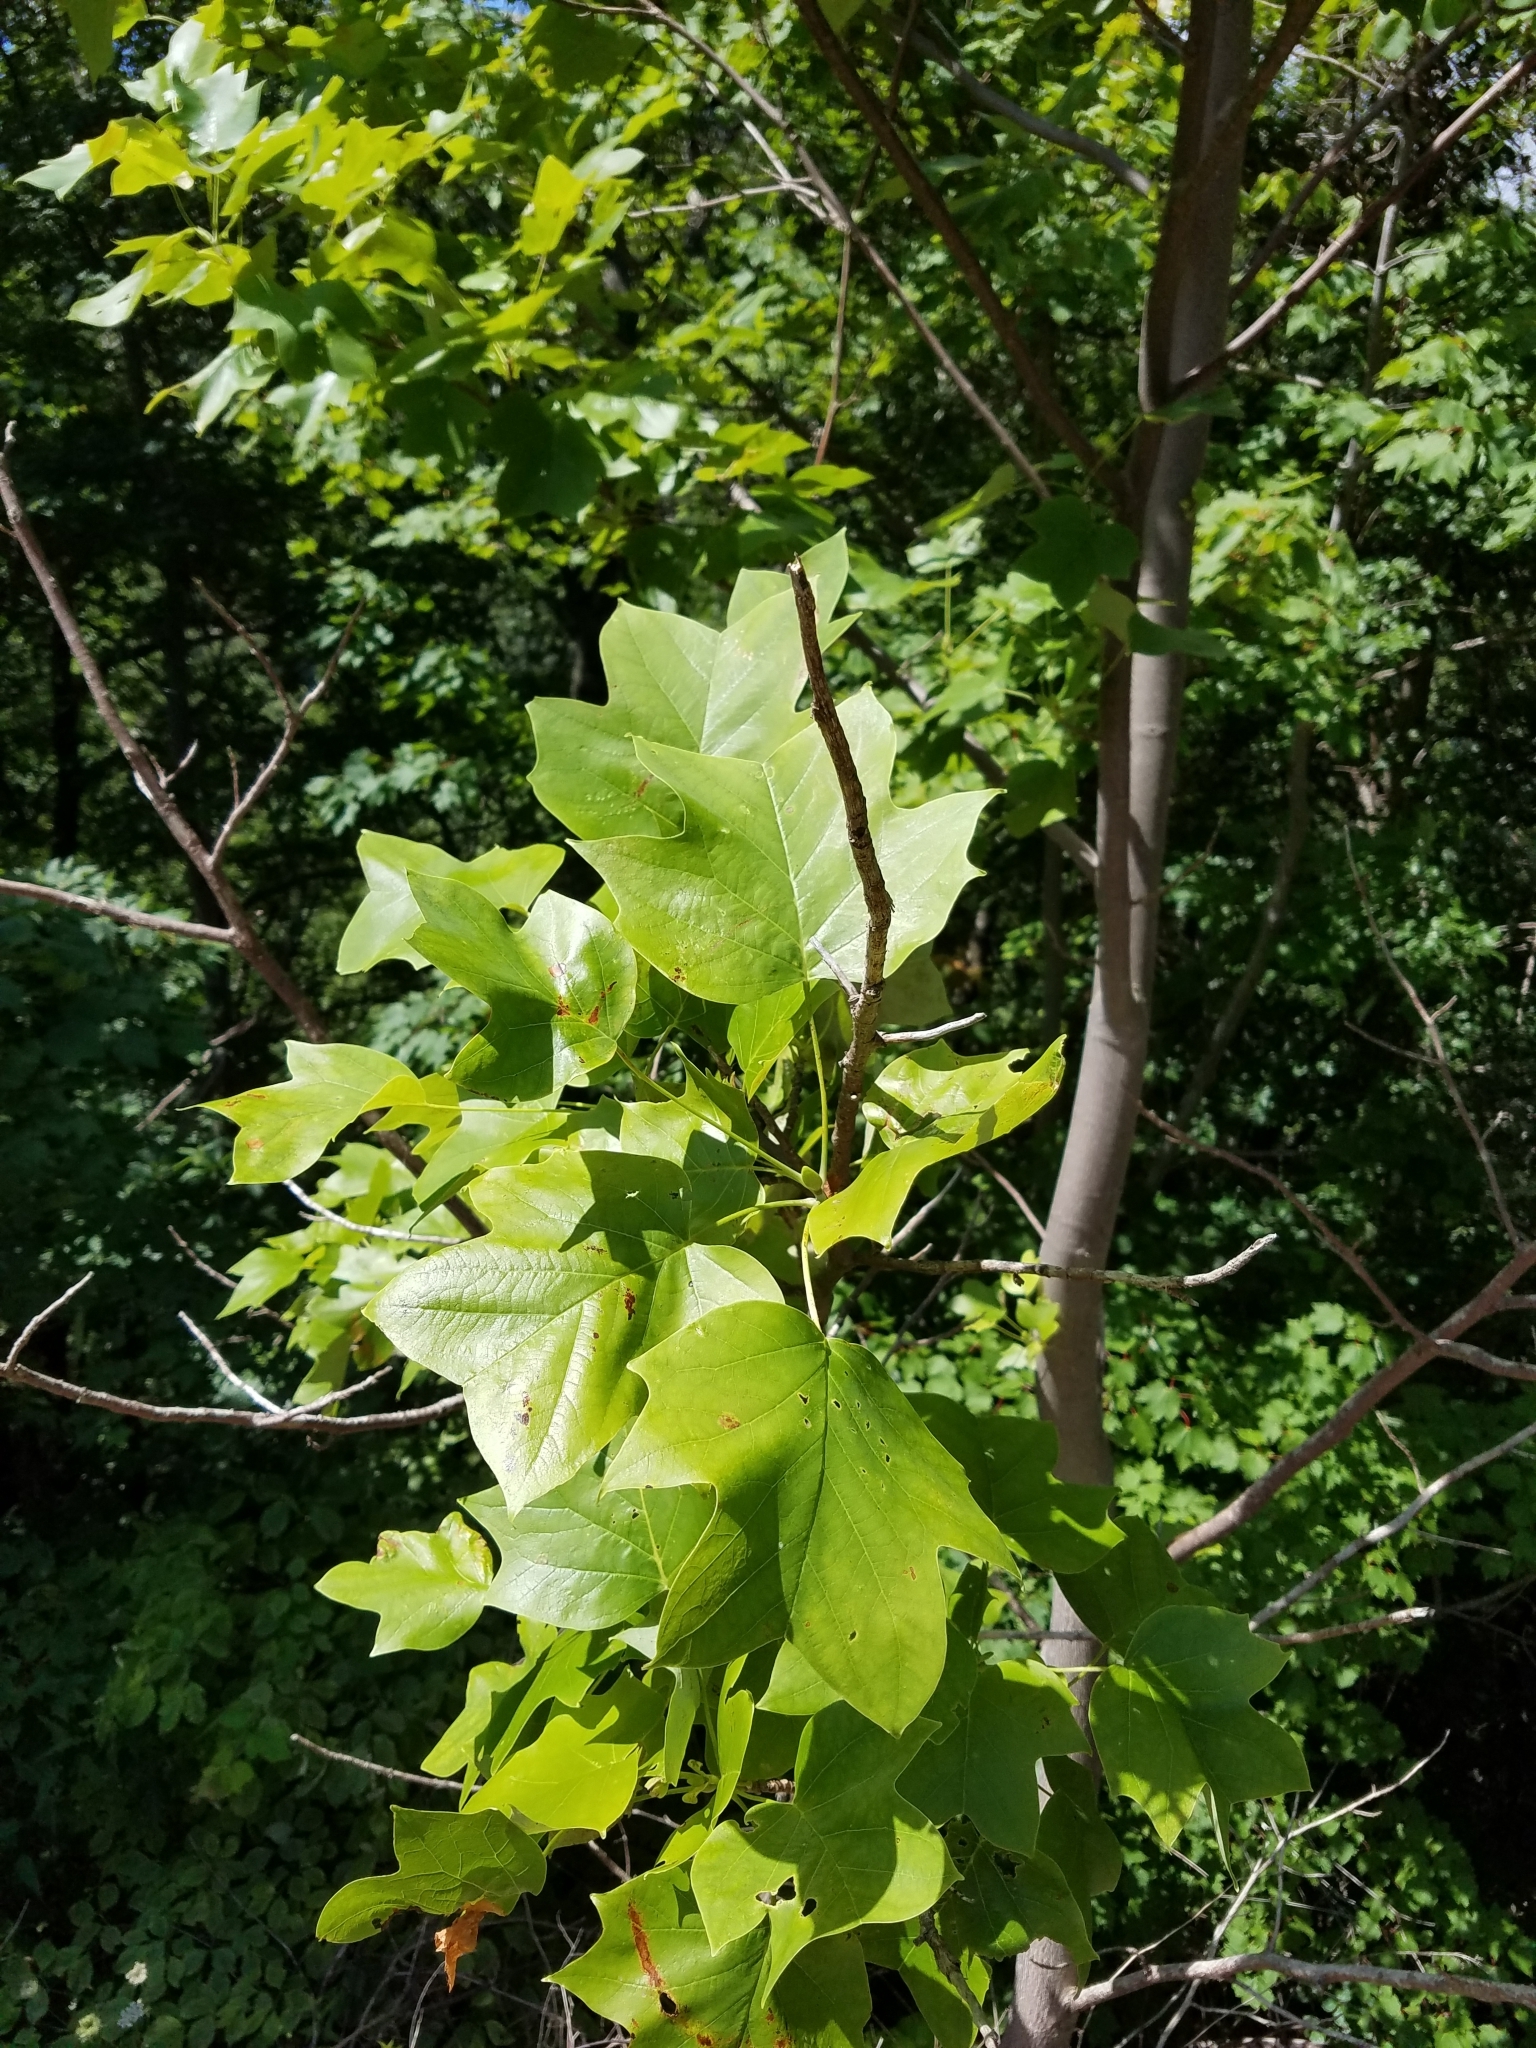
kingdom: Plantae
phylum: Tracheophyta
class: Magnoliopsida
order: Magnoliales
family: Magnoliaceae
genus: Liriodendron
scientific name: Liriodendron tulipifera
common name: Tulip tree
